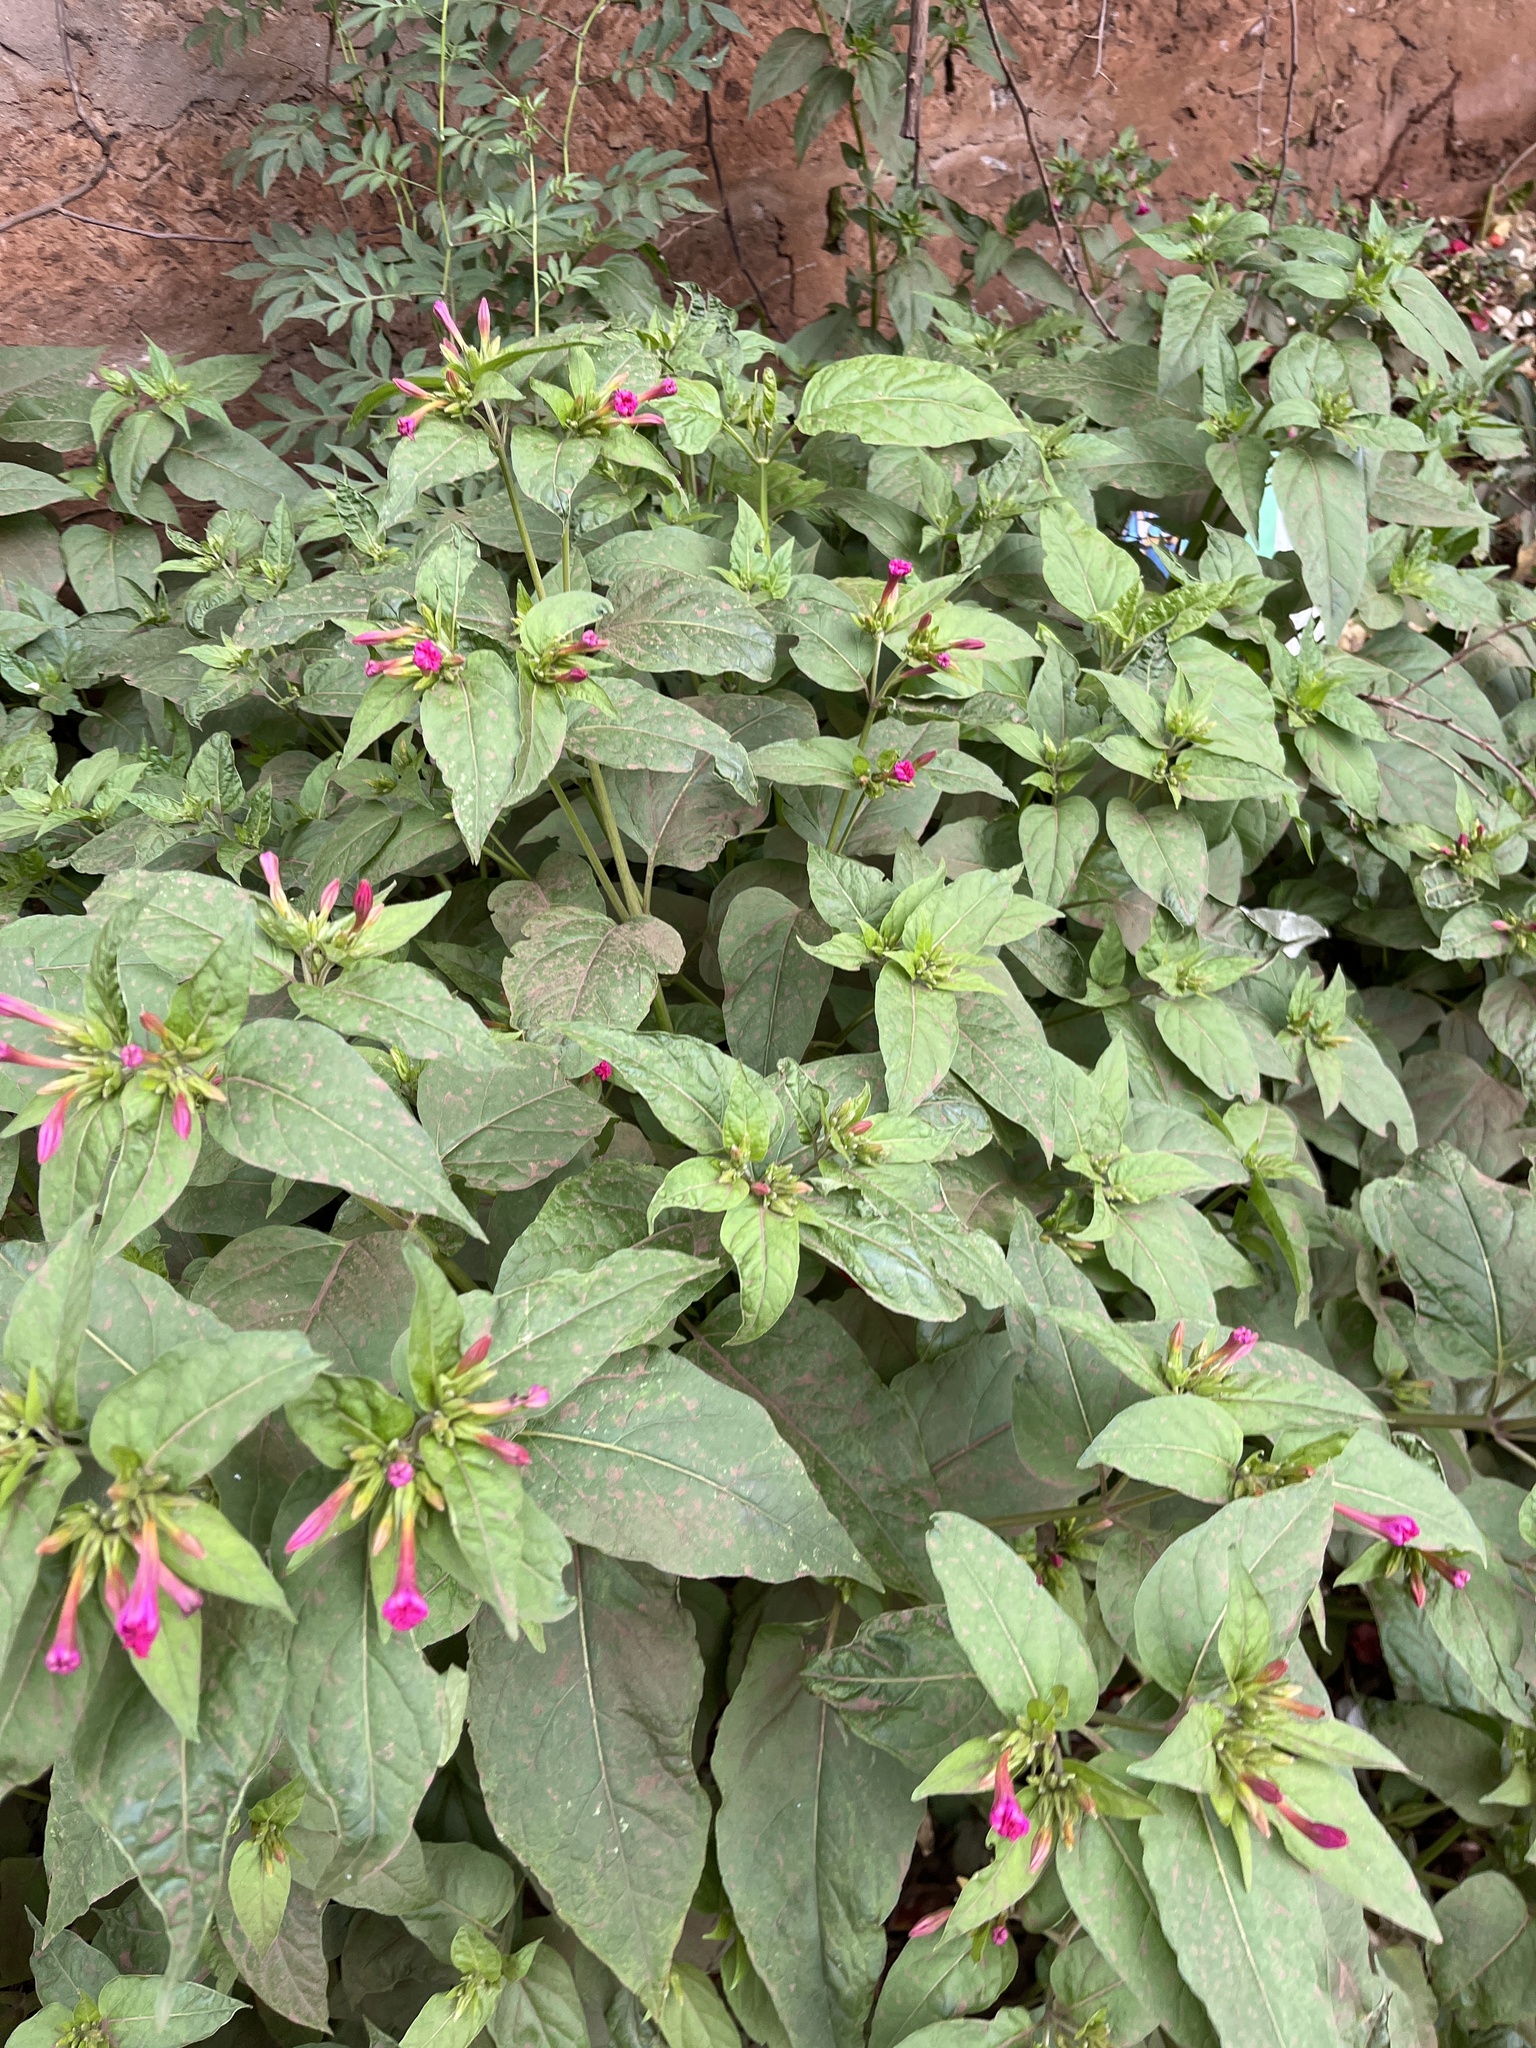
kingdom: Plantae
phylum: Tracheophyta
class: Magnoliopsida
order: Caryophyllales
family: Nyctaginaceae
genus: Mirabilis
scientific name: Mirabilis jalapa
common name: Marvel-of-peru
